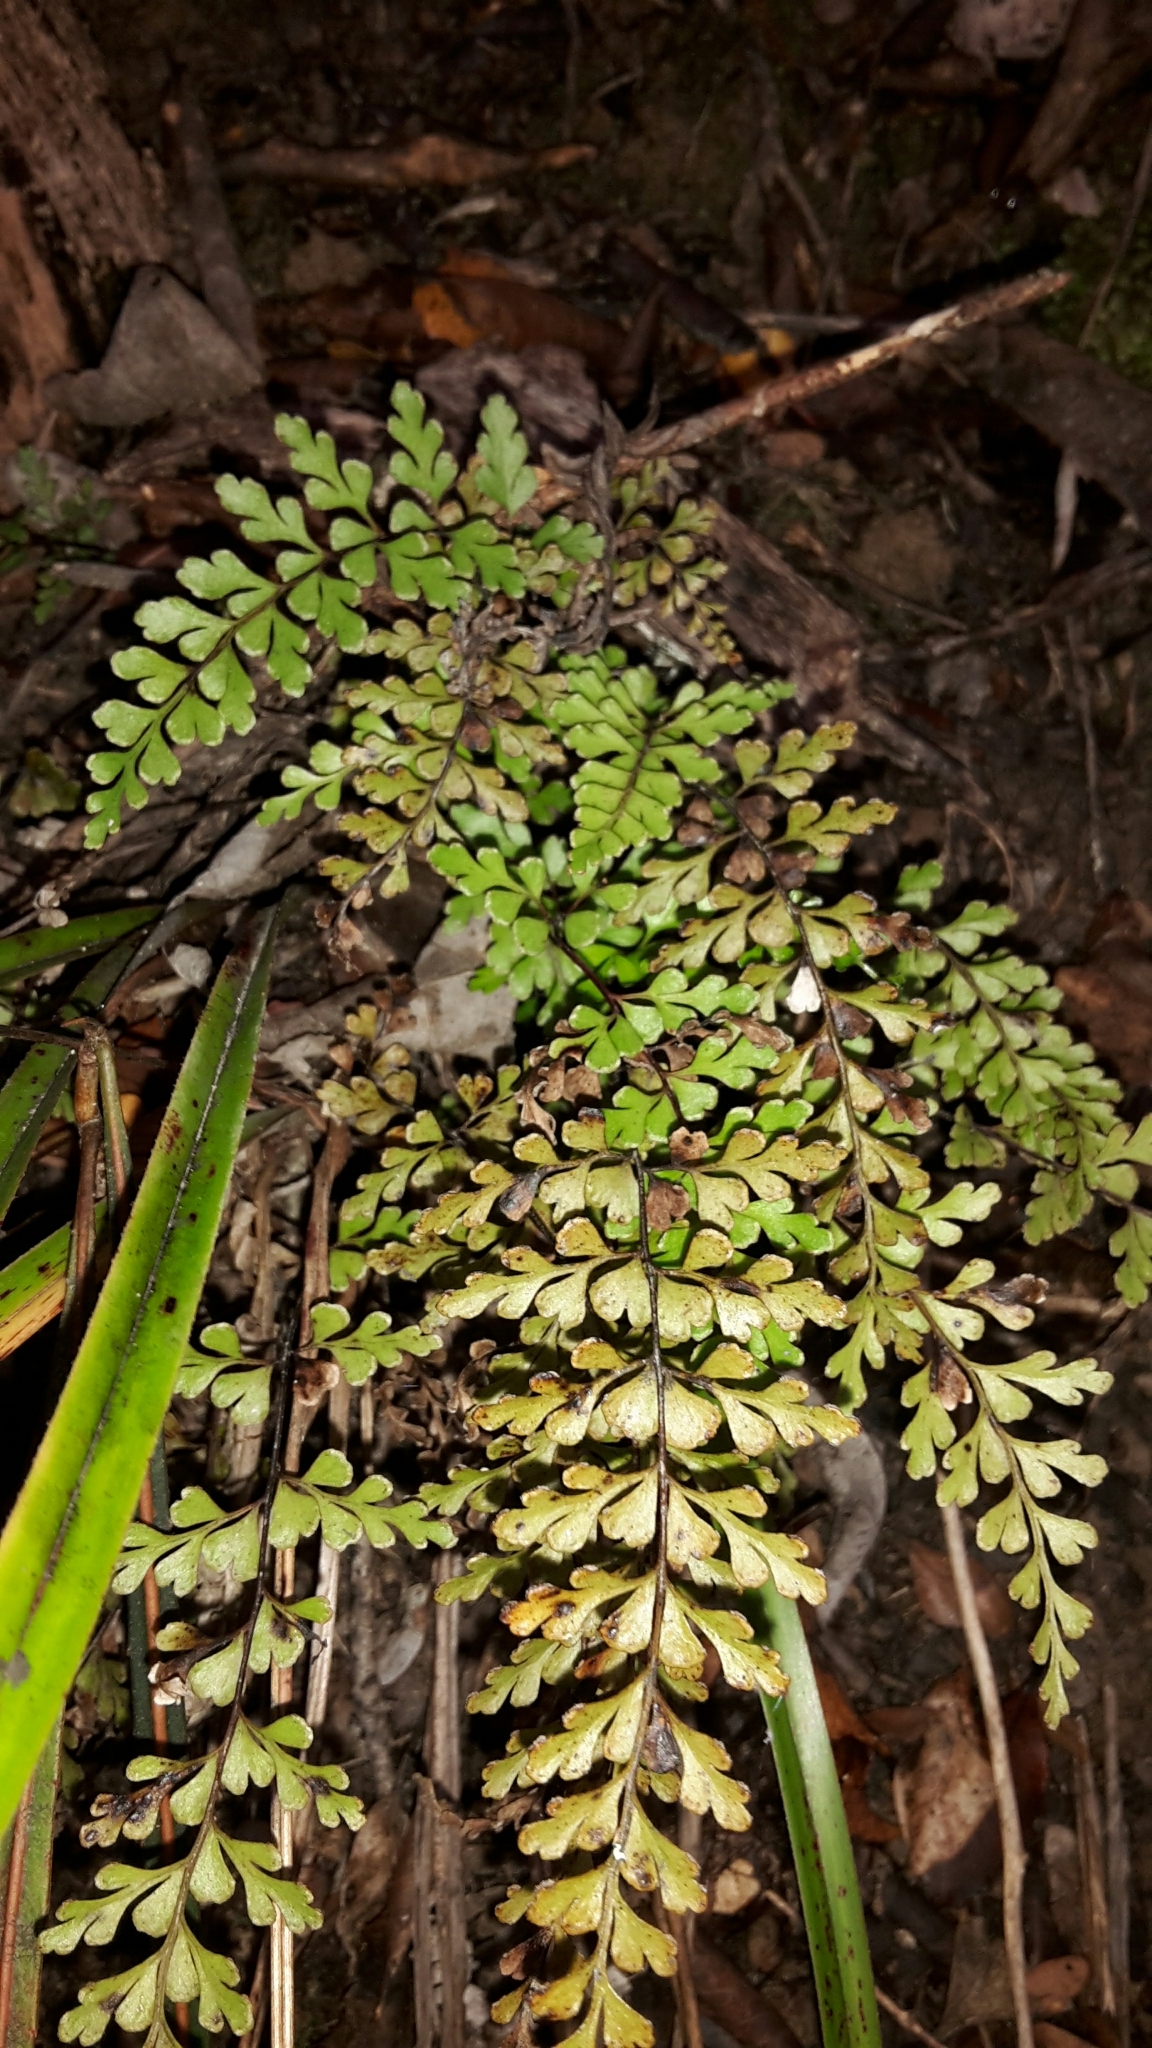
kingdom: Plantae
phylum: Tracheophyta
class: Polypodiopsida
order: Polypodiales
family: Lindsaeaceae
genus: Lindsaea
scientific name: Lindsaea trichomanoides
